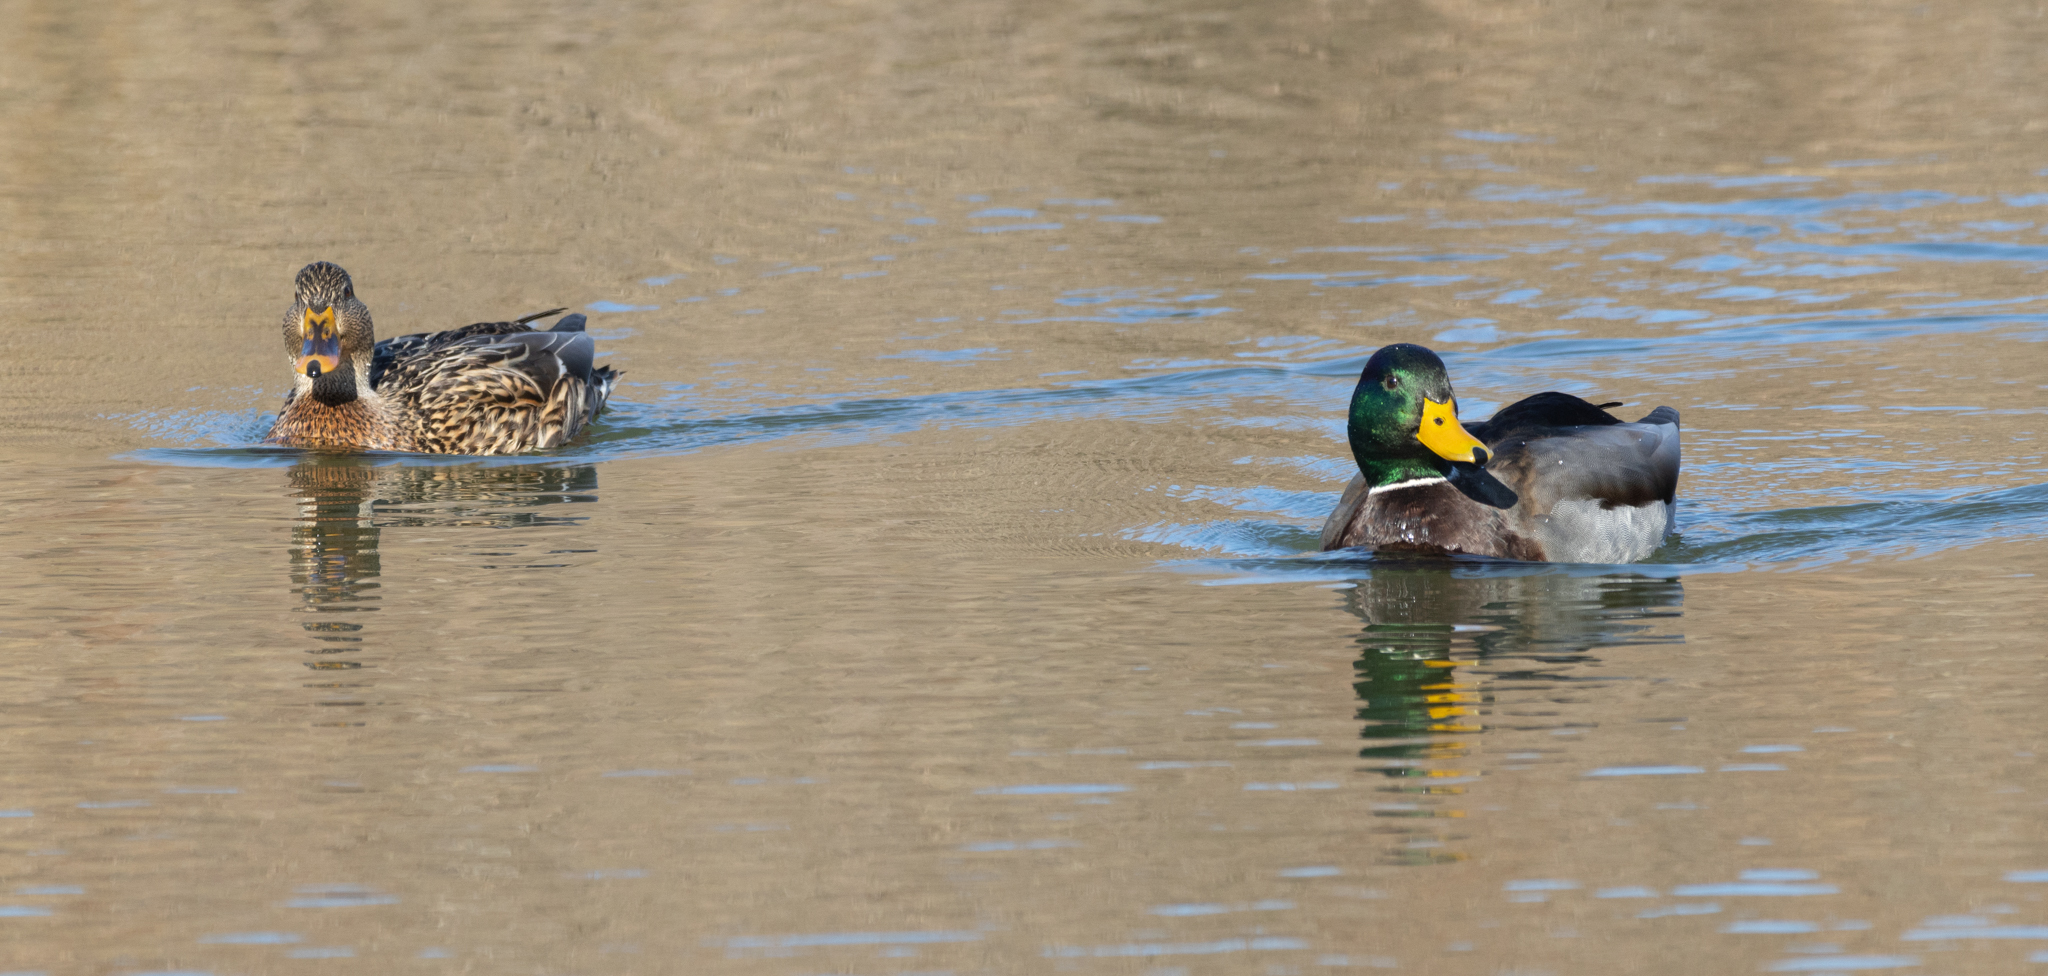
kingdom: Animalia
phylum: Chordata
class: Aves
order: Anseriformes
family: Anatidae
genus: Anas
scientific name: Anas platyrhynchos
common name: Mallard
